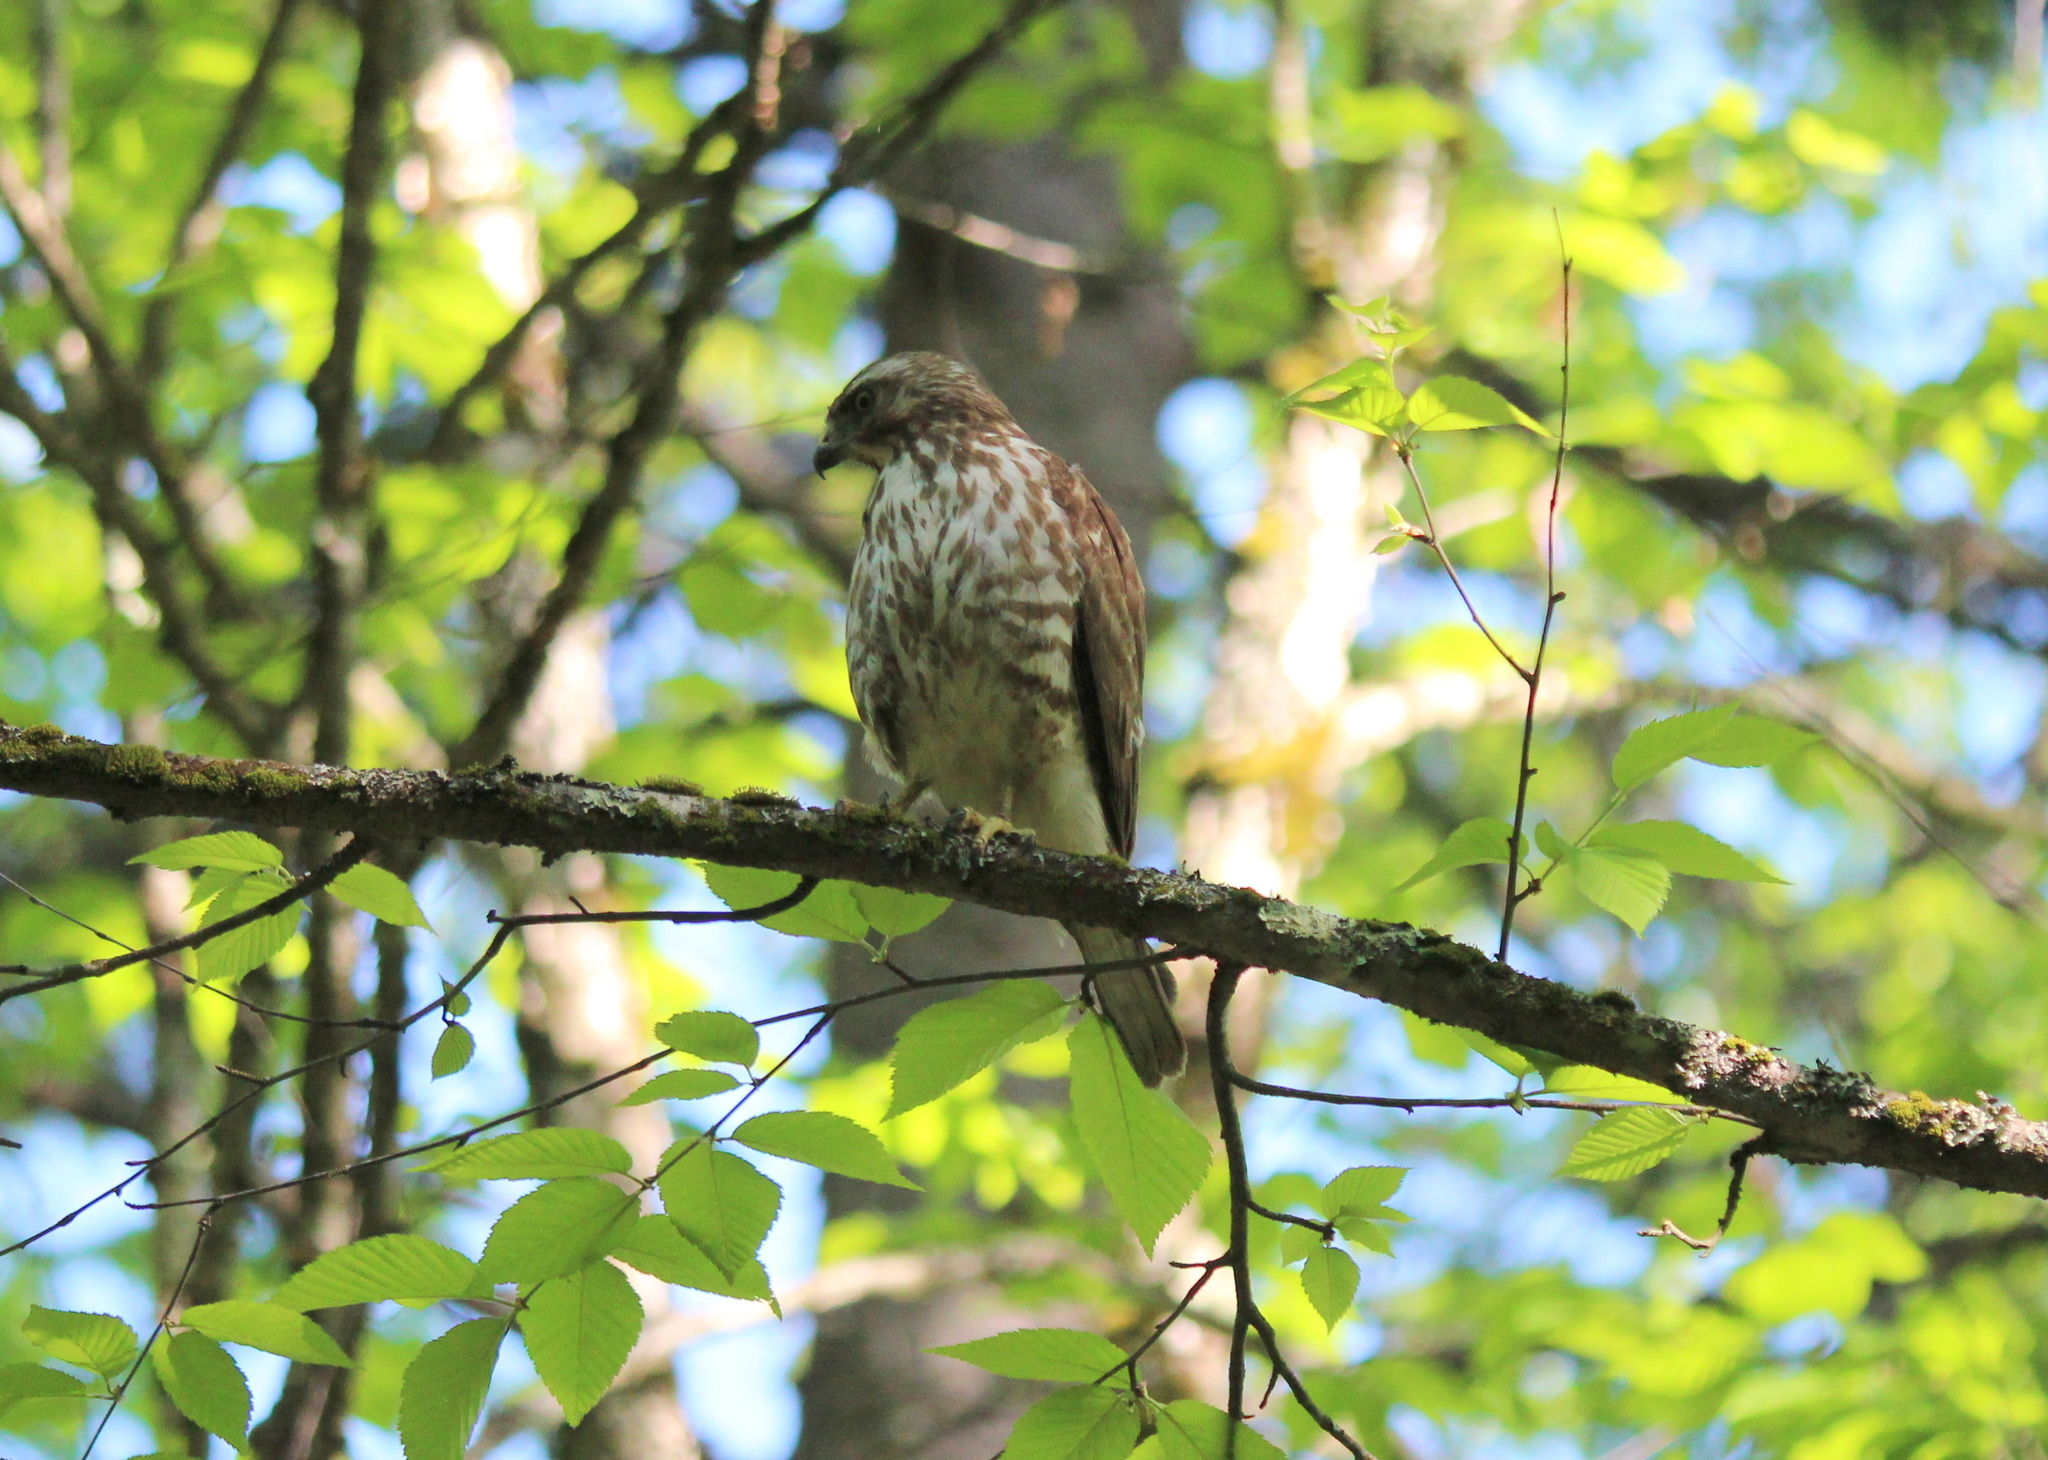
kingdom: Animalia
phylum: Chordata
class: Aves
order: Accipitriformes
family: Accipitridae
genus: Buteo
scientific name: Buteo platypterus
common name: Broad-winged hawk
